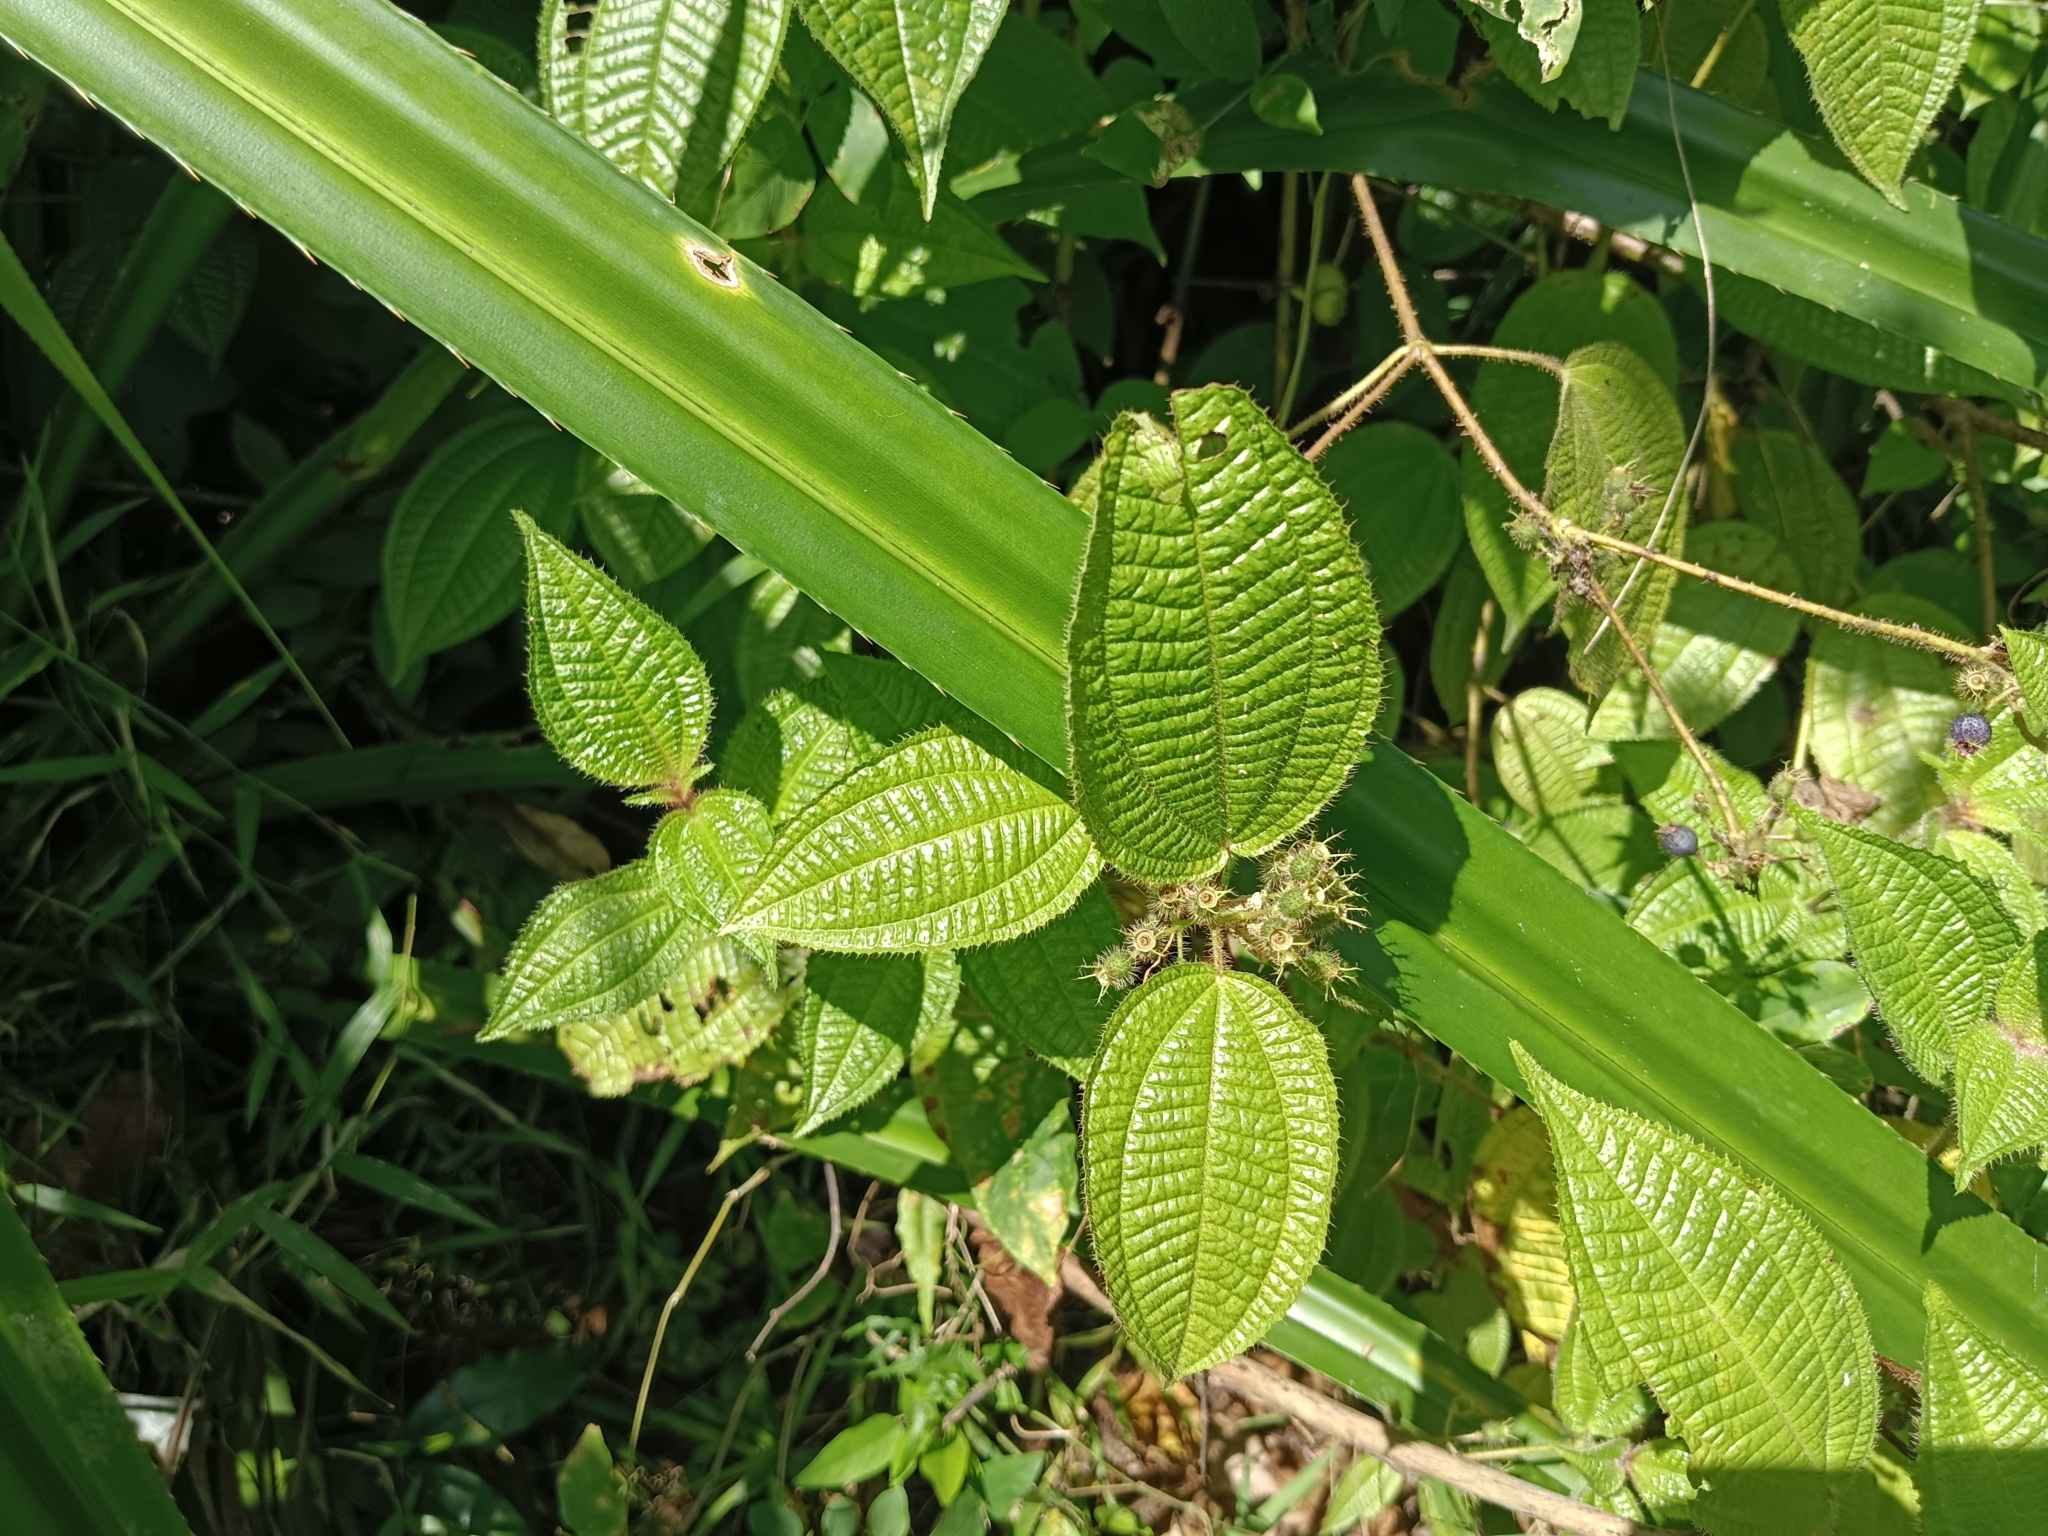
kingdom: Plantae
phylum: Tracheophyta
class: Magnoliopsida
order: Myrtales
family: Melastomataceae
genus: Miconia
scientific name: Miconia crenata
